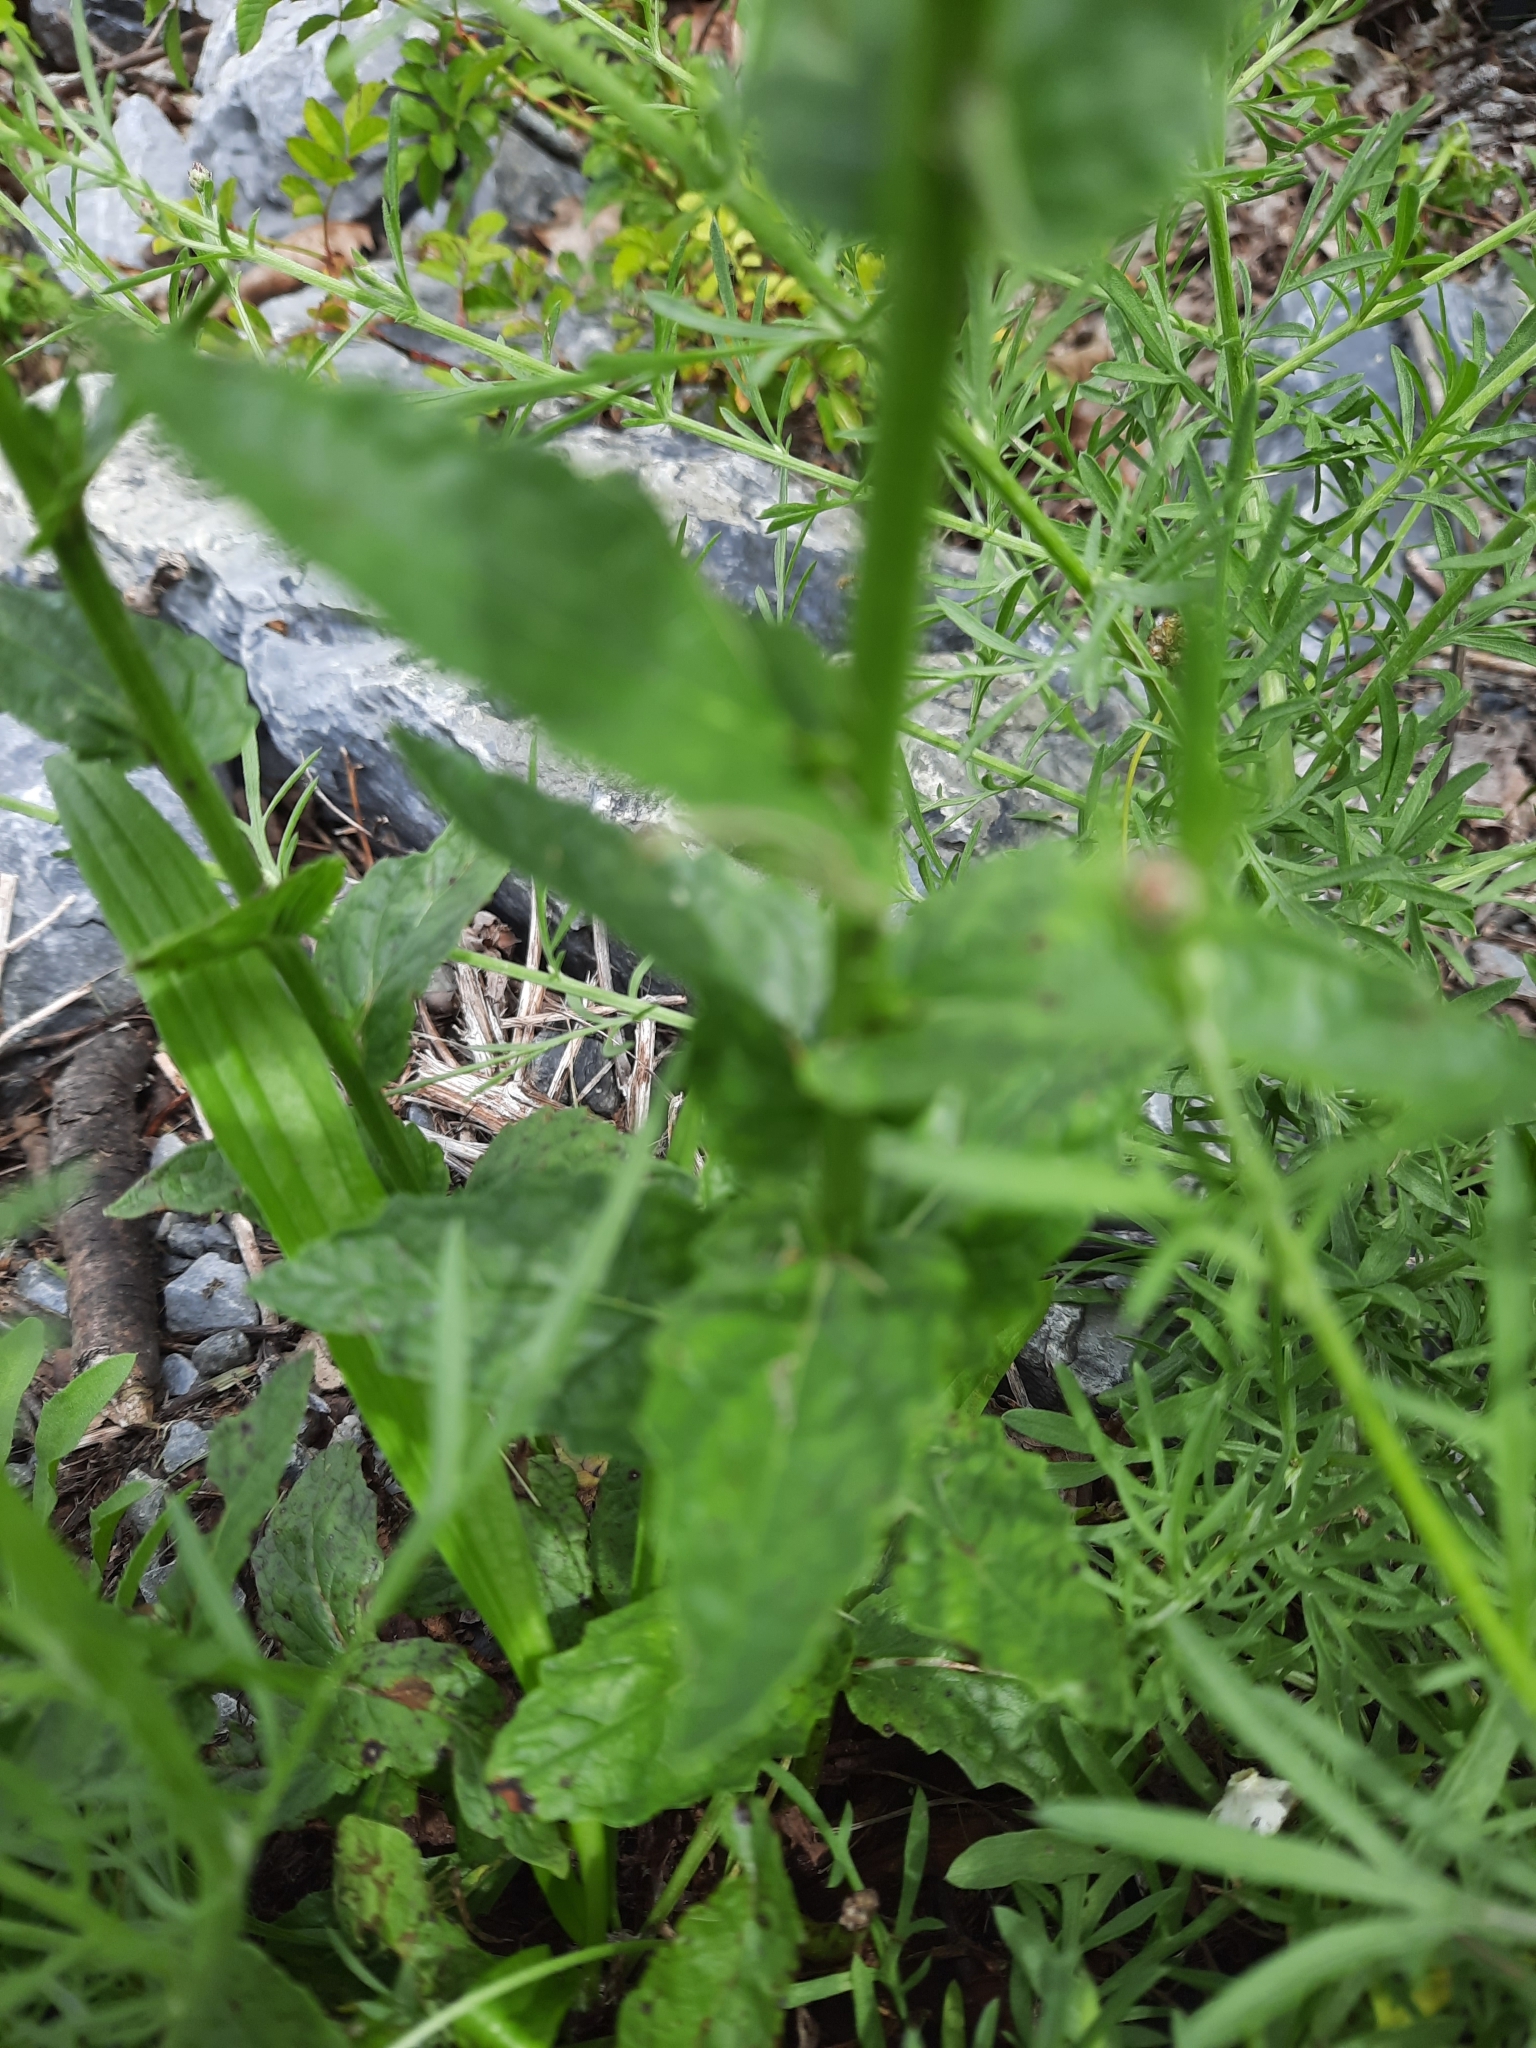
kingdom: Plantae
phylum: Tracheophyta
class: Magnoliopsida
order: Lamiales
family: Scrophulariaceae
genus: Verbascum
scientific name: Verbascum blattaria
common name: Moth mullein
